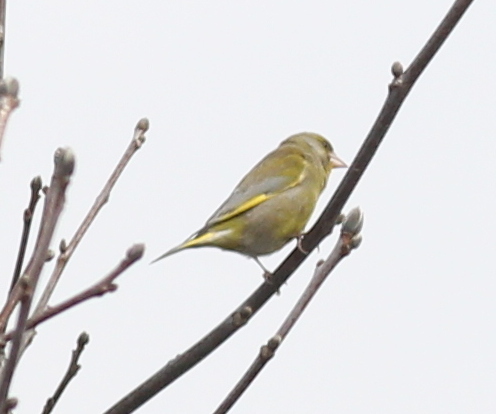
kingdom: Plantae
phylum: Tracheophyta
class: Liliopsida
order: Poales
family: Poaceae
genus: Chloris
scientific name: Chloris chloris
